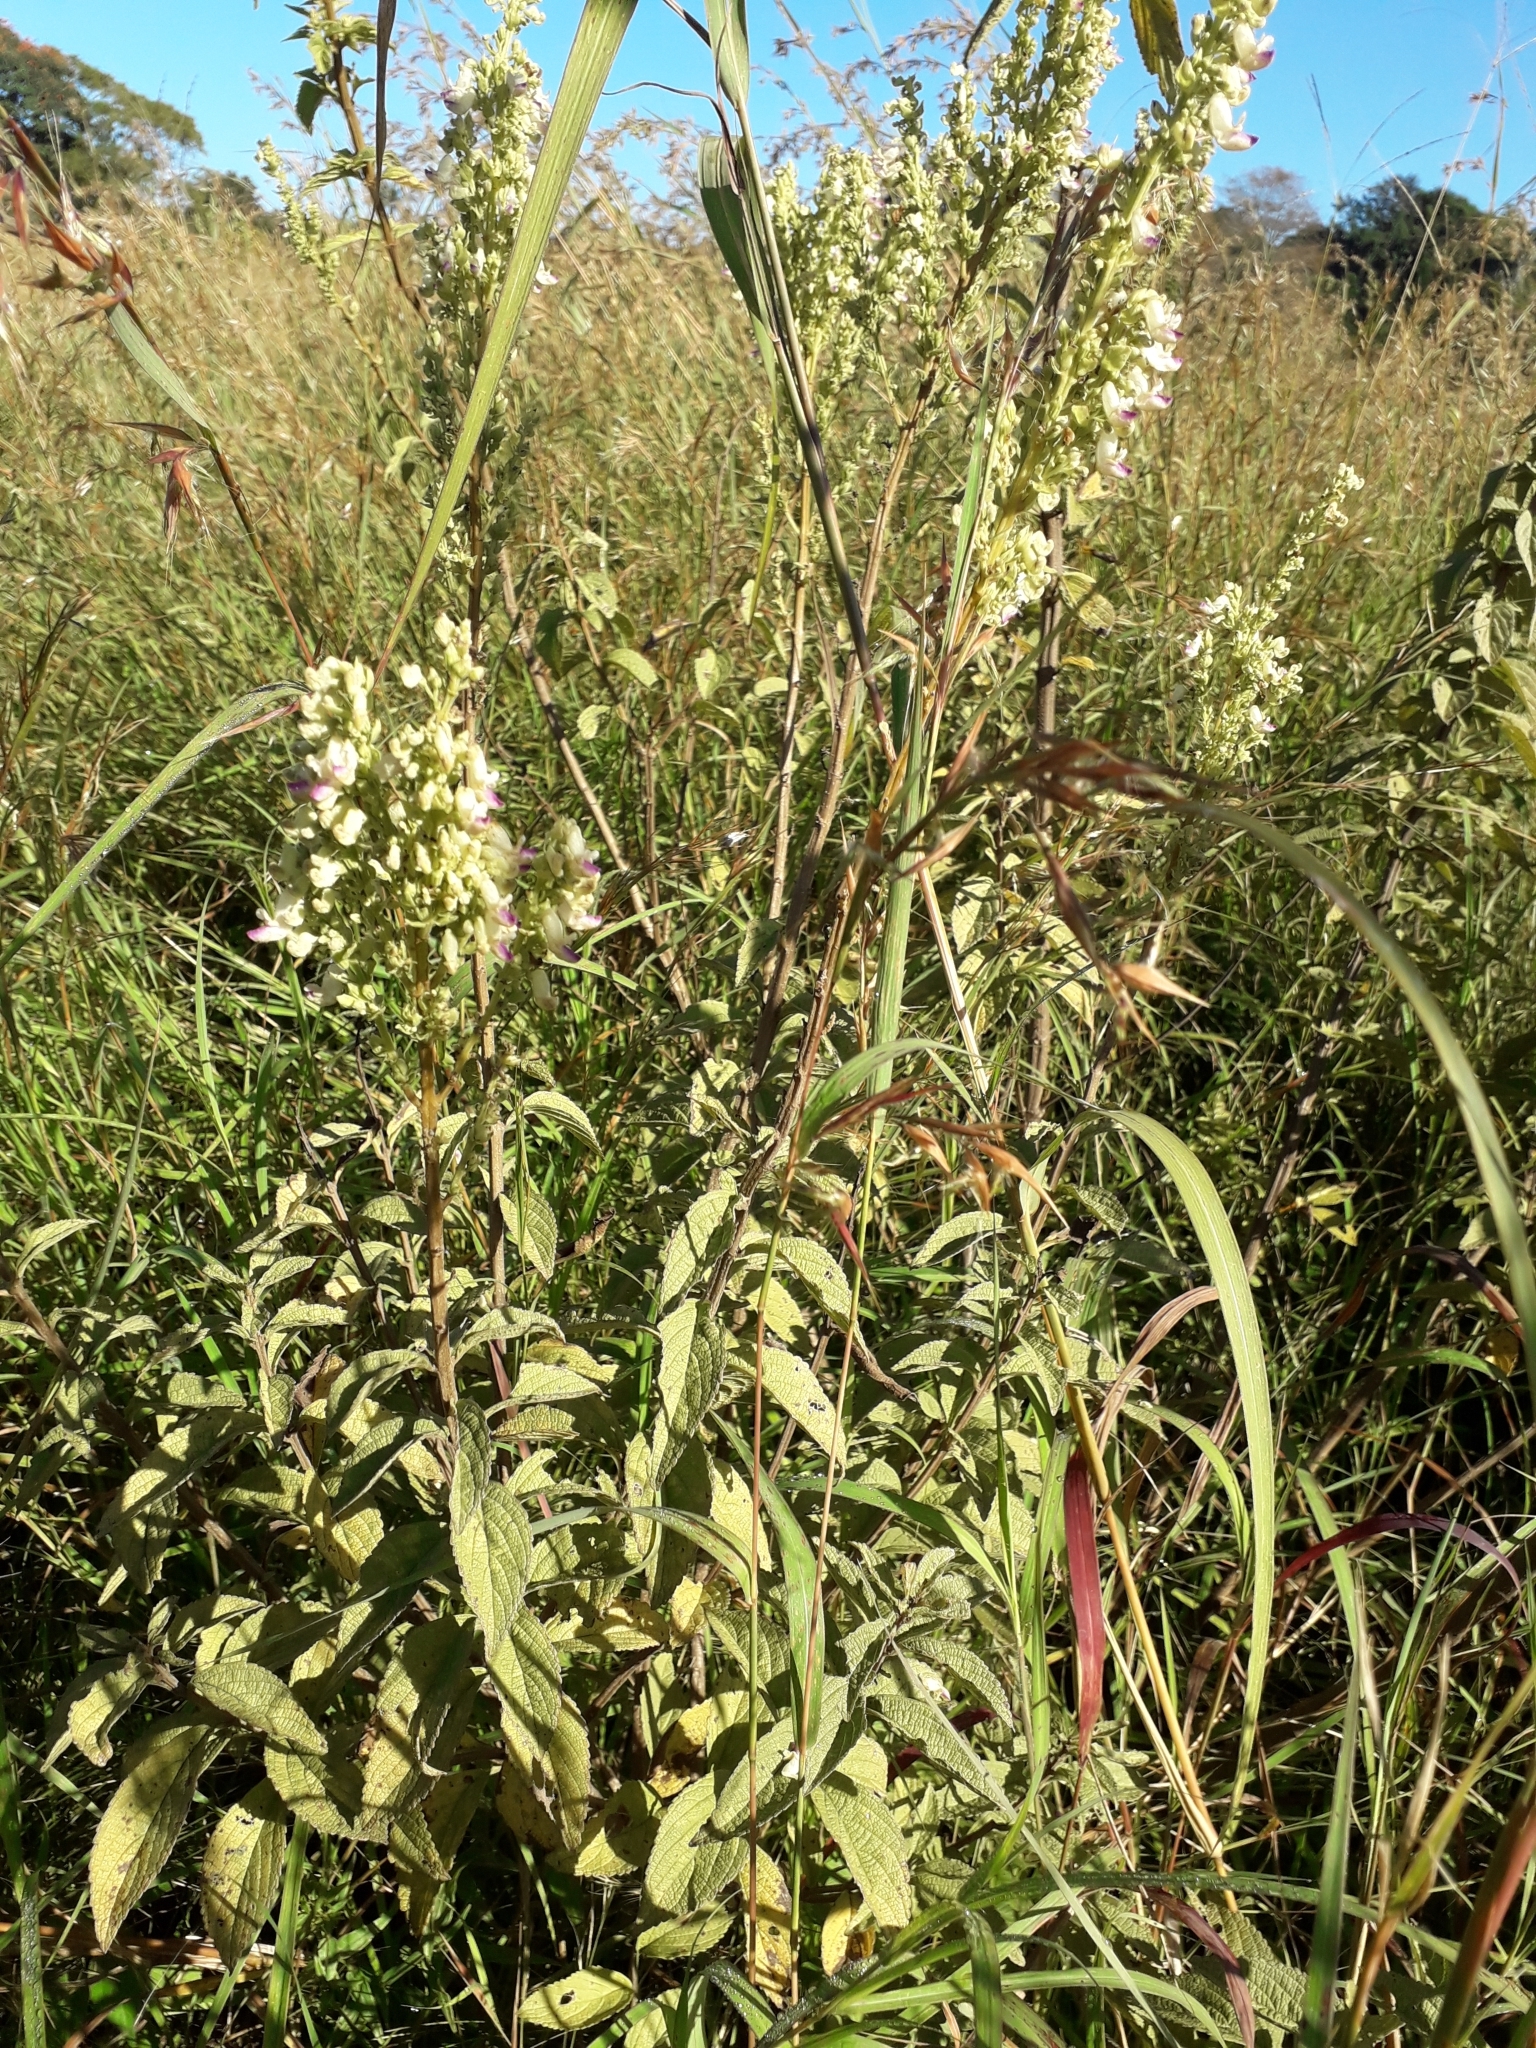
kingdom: Plantae
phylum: Tracheophyta
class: Magnoliopsida
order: Lamiales
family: Lamiaceae
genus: Coleus
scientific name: Coleus calycinus
